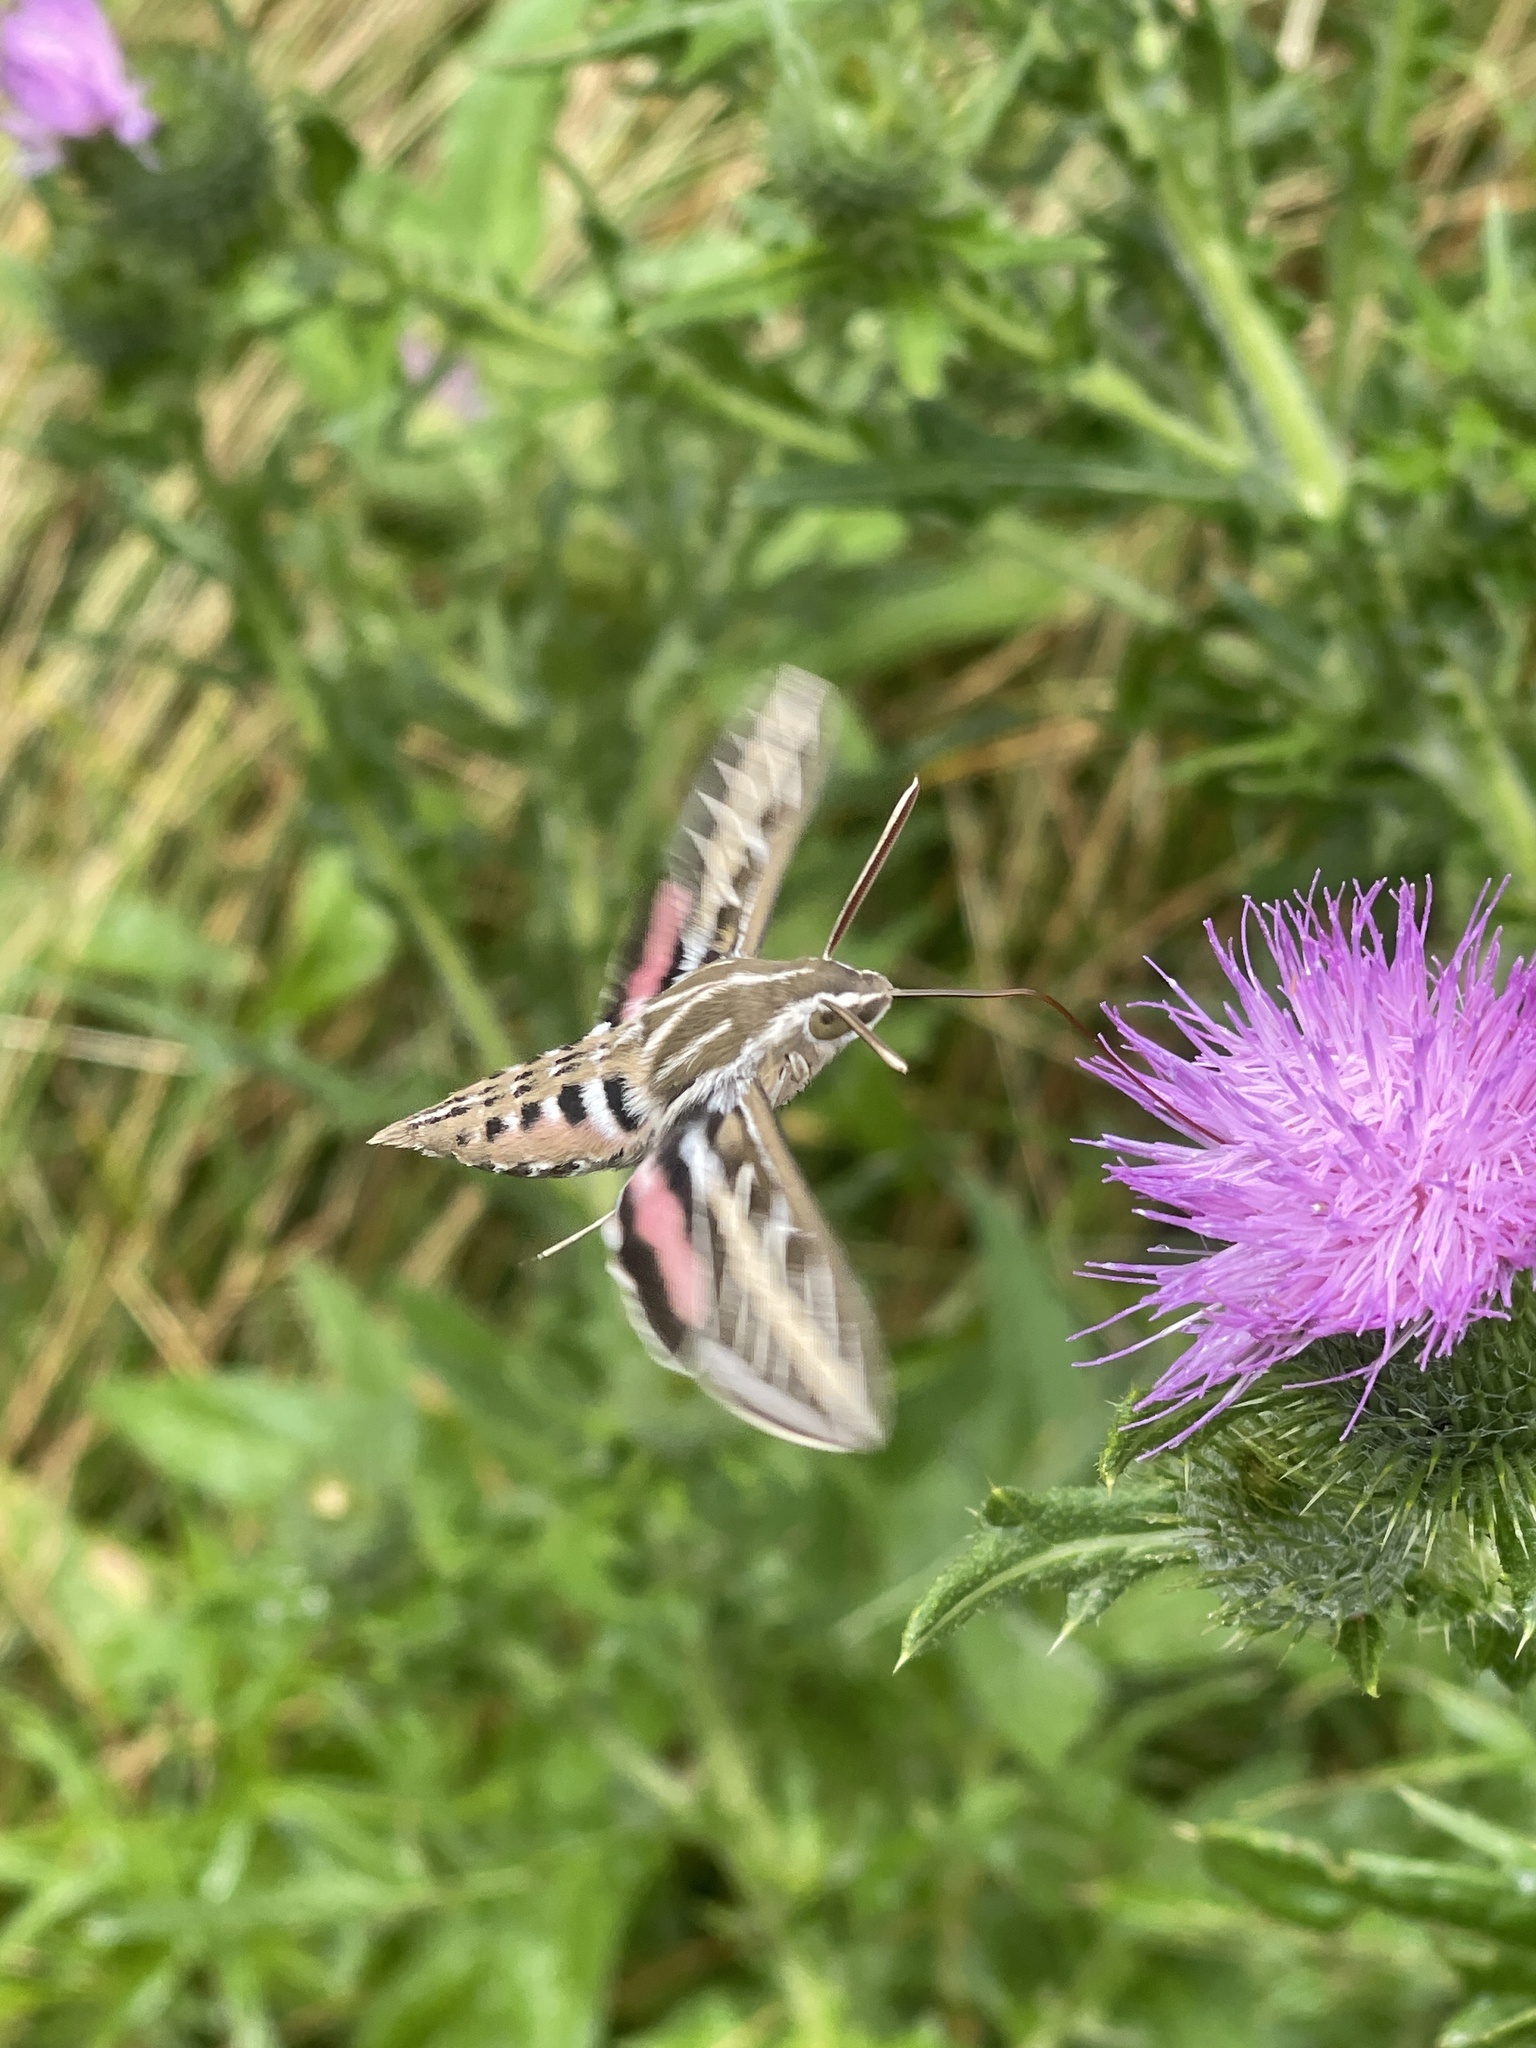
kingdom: Animalia
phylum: Arthropoda
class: Insecta
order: Lepidoptera
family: Sphingidae
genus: Hyles
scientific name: Hyles lineata
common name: White-lined sphinx
